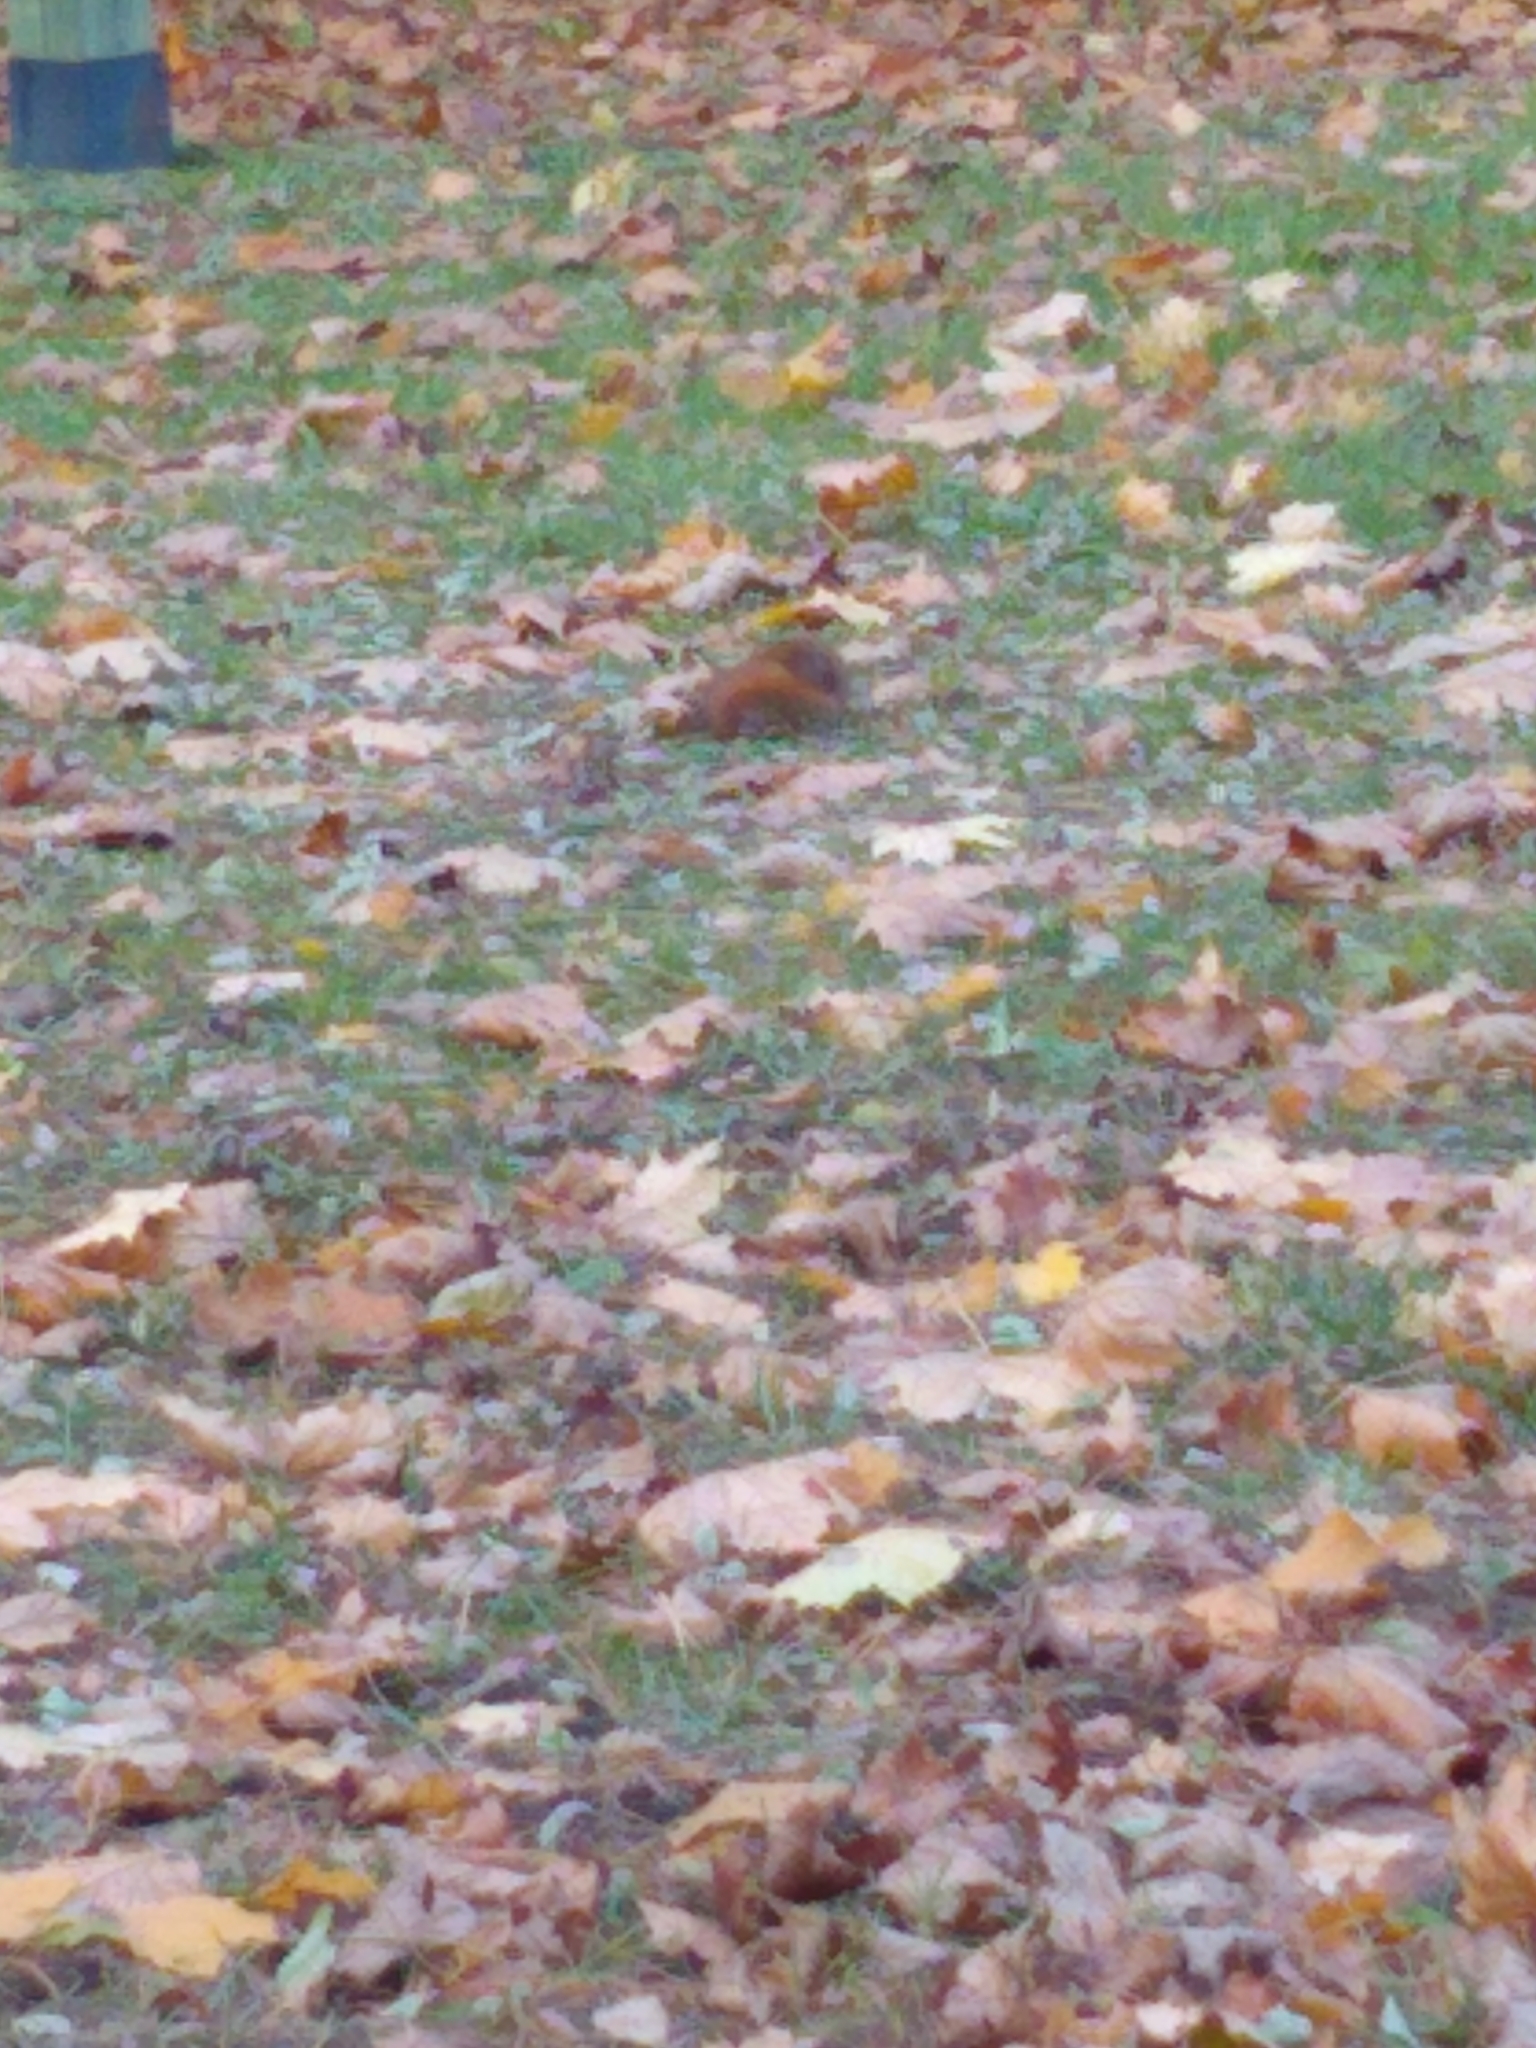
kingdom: Animalia
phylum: Chordata
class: Mammalia
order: Rodentia
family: Sciuridae
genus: Tamiasciurus
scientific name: Tamiasciurus hudsonicus
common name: Red squirrel
